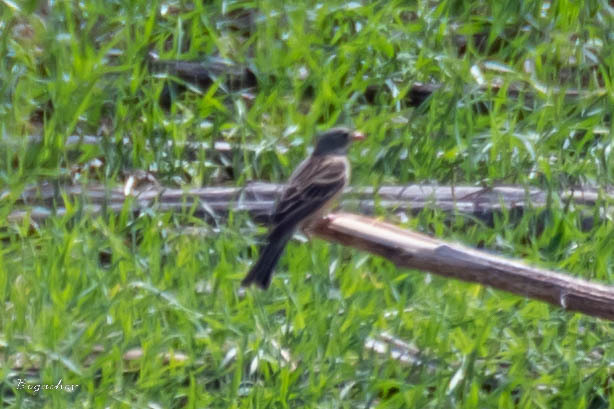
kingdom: Animalia
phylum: Chordata
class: Aves
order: Passeriformes
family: Emberizidae
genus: Emberiza
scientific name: Emberiza hortulana
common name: Ortolan bunting
